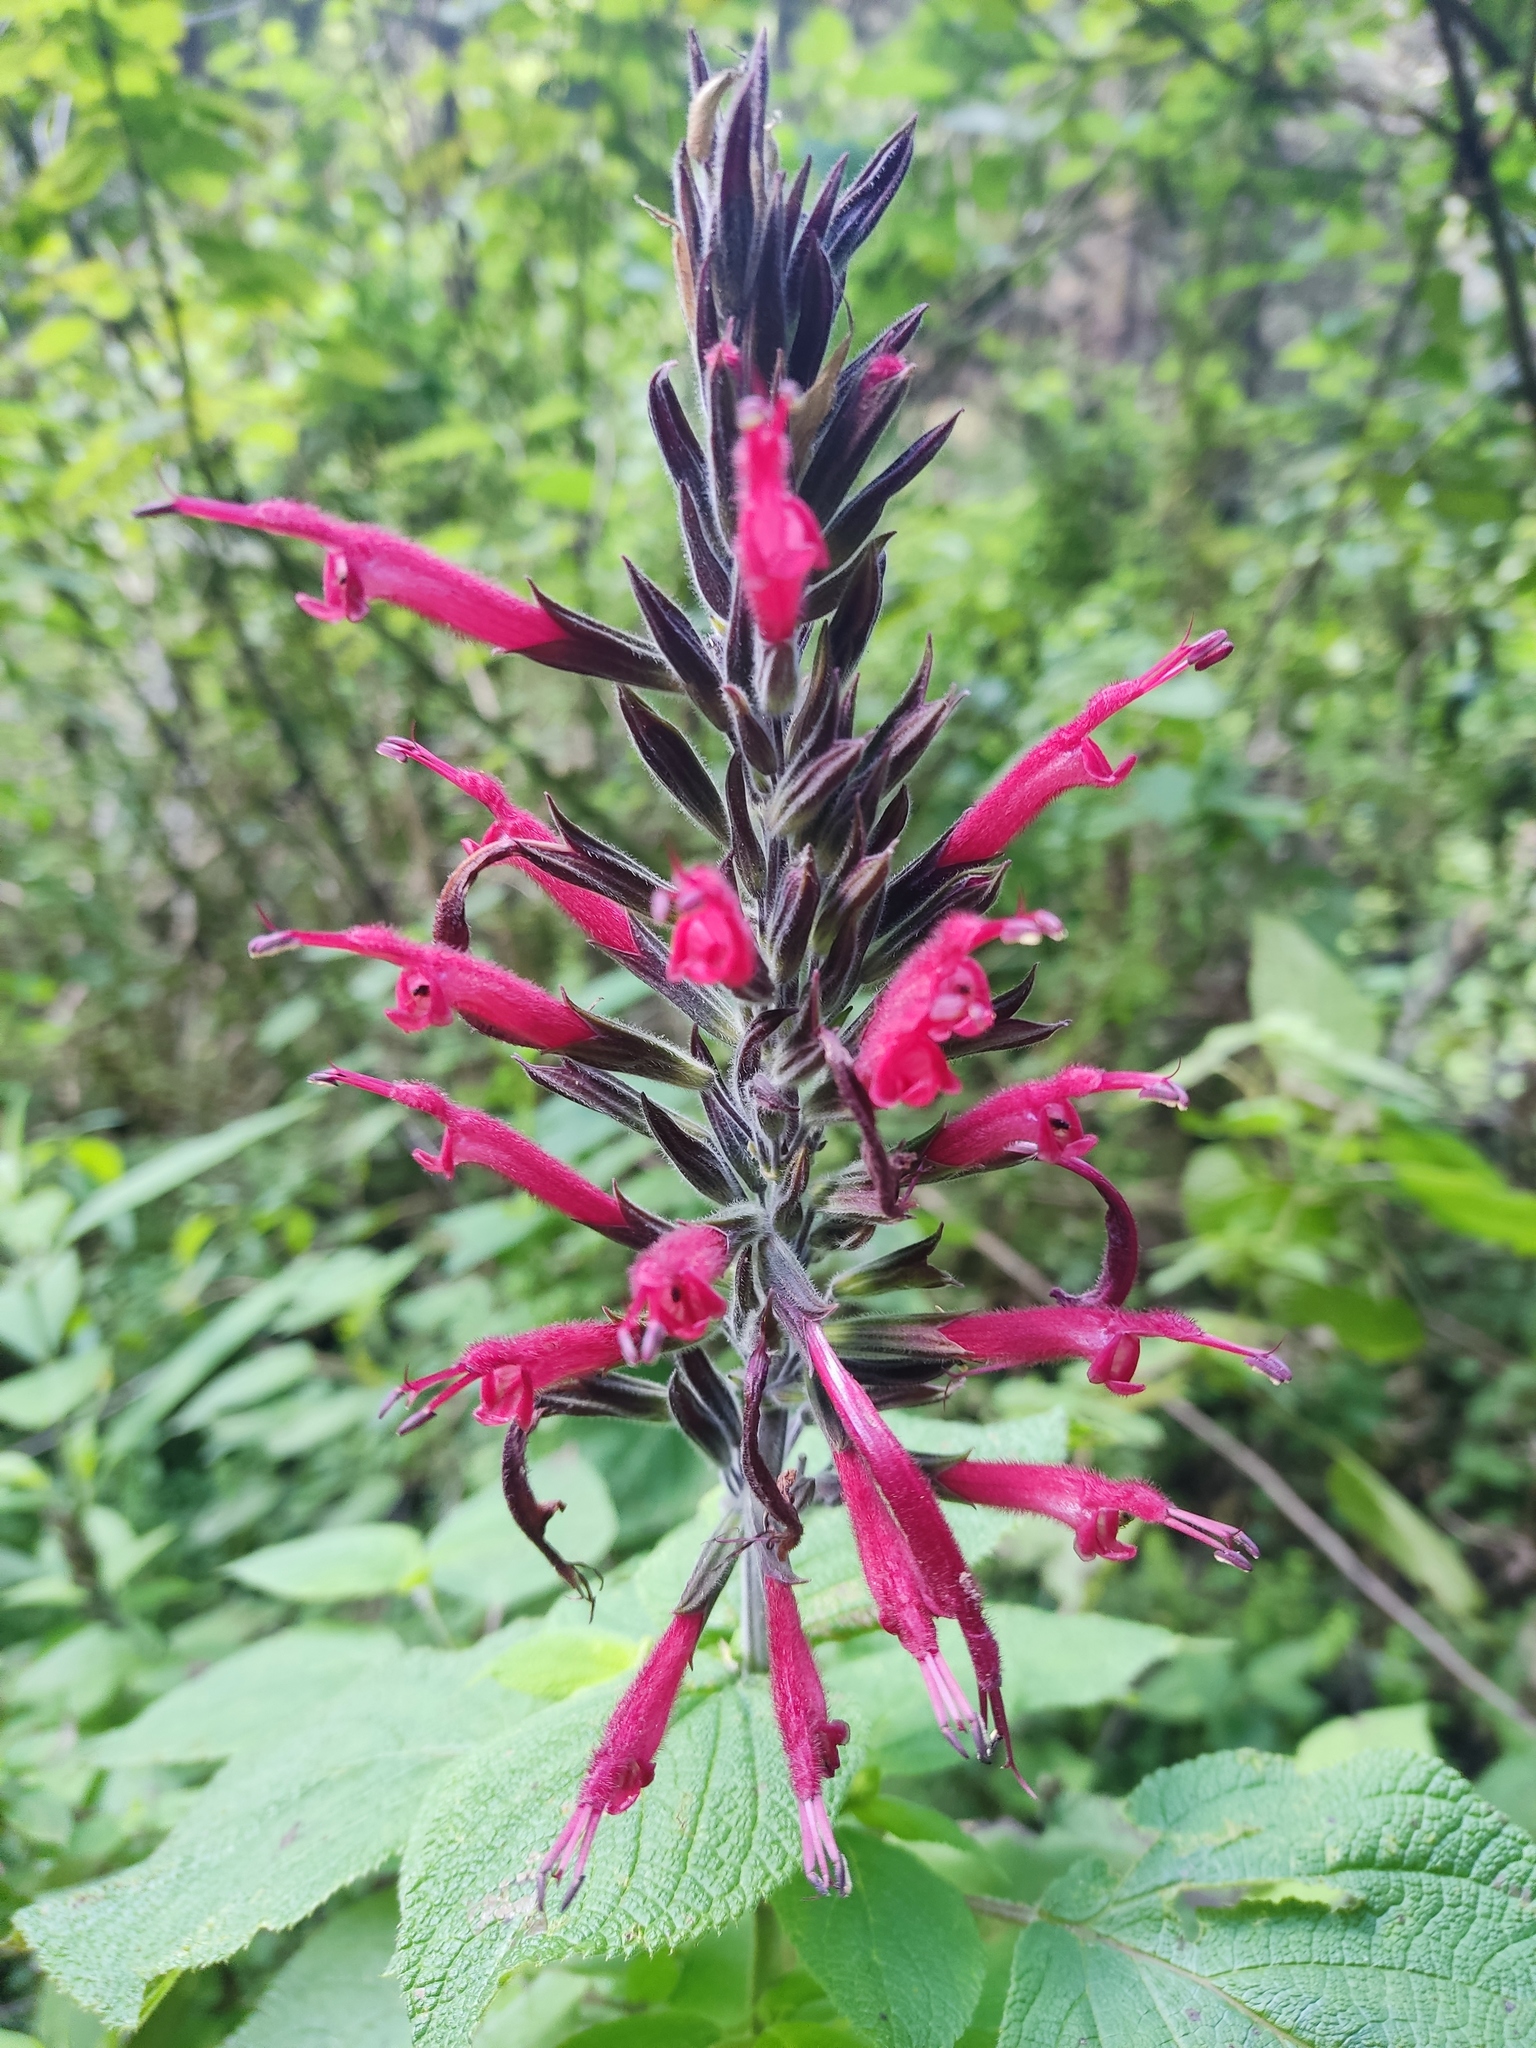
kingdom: Plantae
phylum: Tracheophyta
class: Magnoliopsida
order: Lamiales
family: Lamiaceae
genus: Salvia
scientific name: Salvia longistyla
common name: Mexican sage
